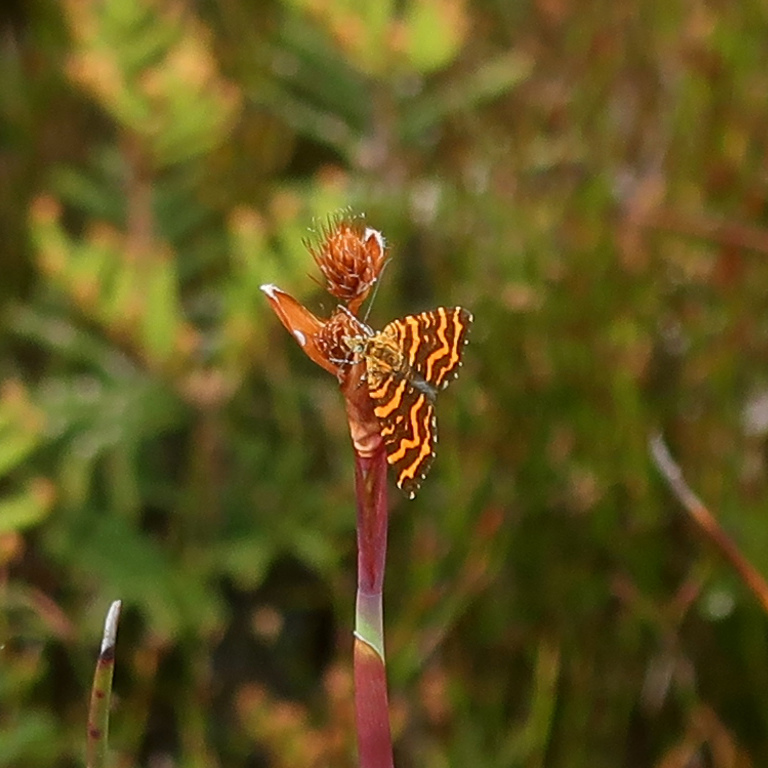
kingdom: Animalia
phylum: Arthropoda
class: Insecta
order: Lepidoptera
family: Geometridae
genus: Chrysolarentia
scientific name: Chrysolarentia chrysocyma
